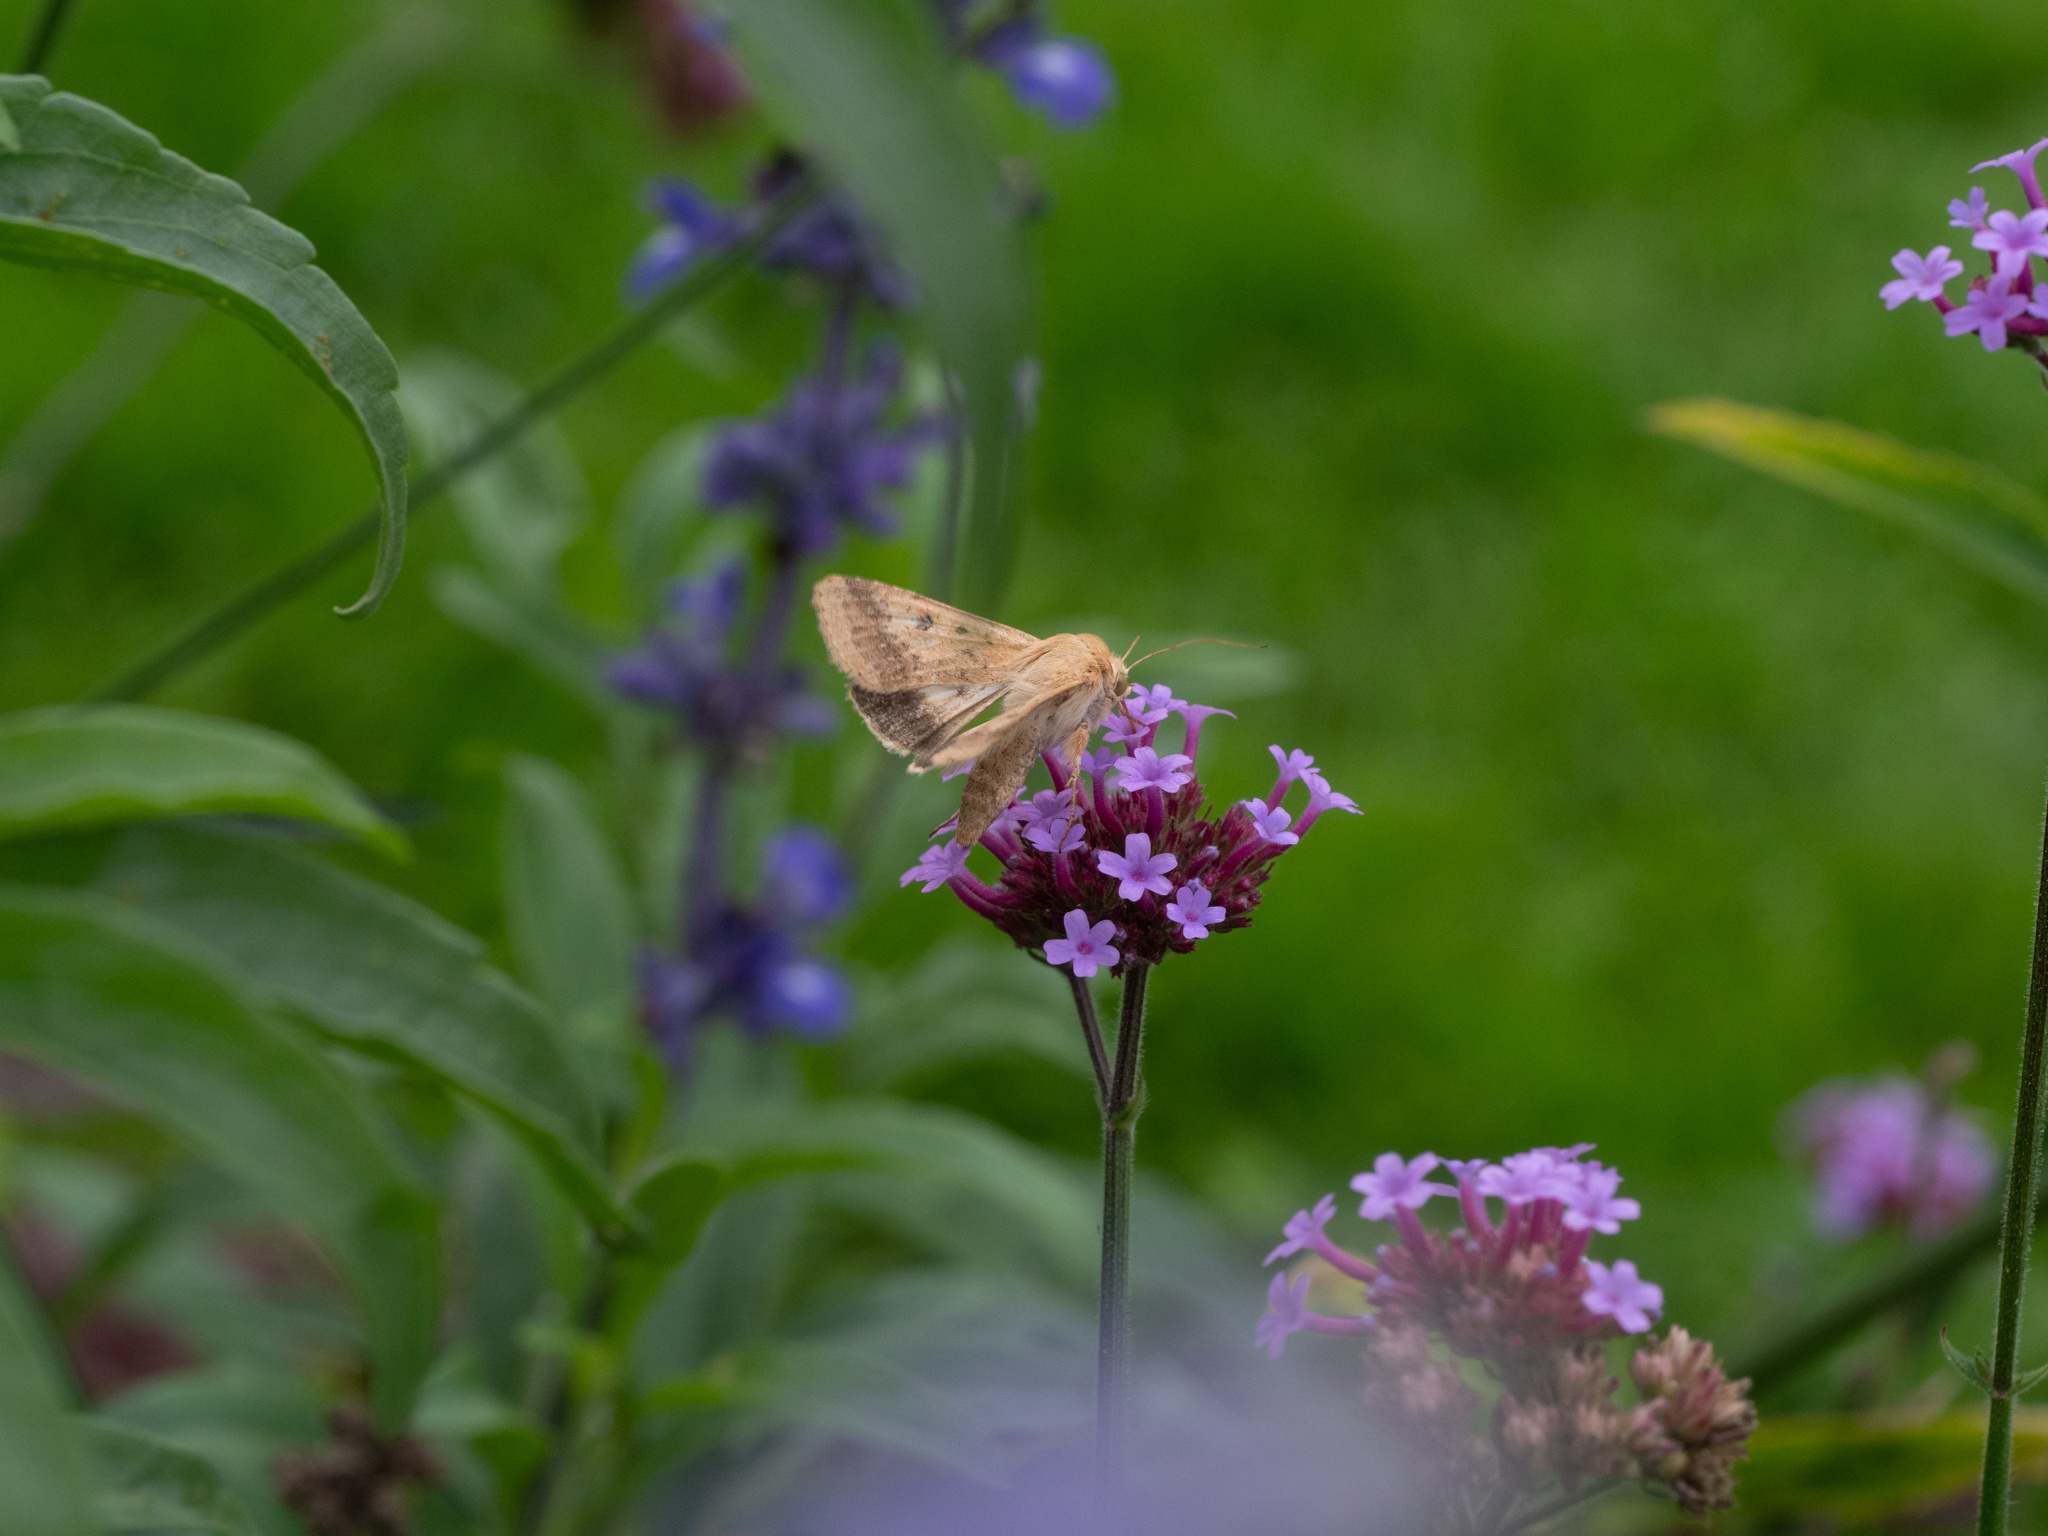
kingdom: Animalia
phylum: Arthropoda
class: Insecta
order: Lepidoptera
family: Noctuidae
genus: Helicoverpa
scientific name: Helicoverpa armigera
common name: Cotton bollworm
